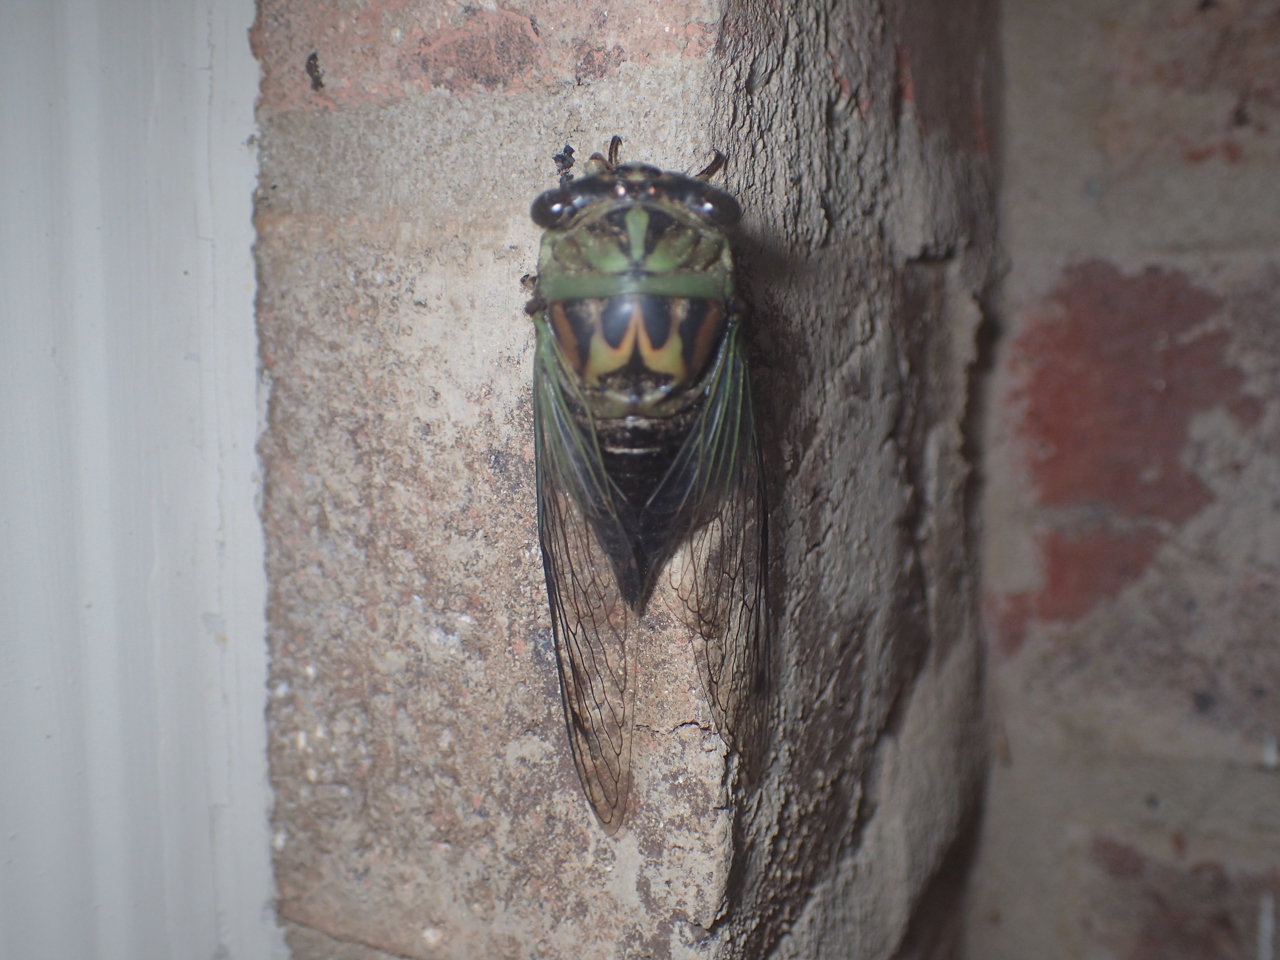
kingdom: Animalia
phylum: Arthropoda
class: Insecta
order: Hemiptera
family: Cicadidae
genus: Neotibicen
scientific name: Neotibicen pruinosus
